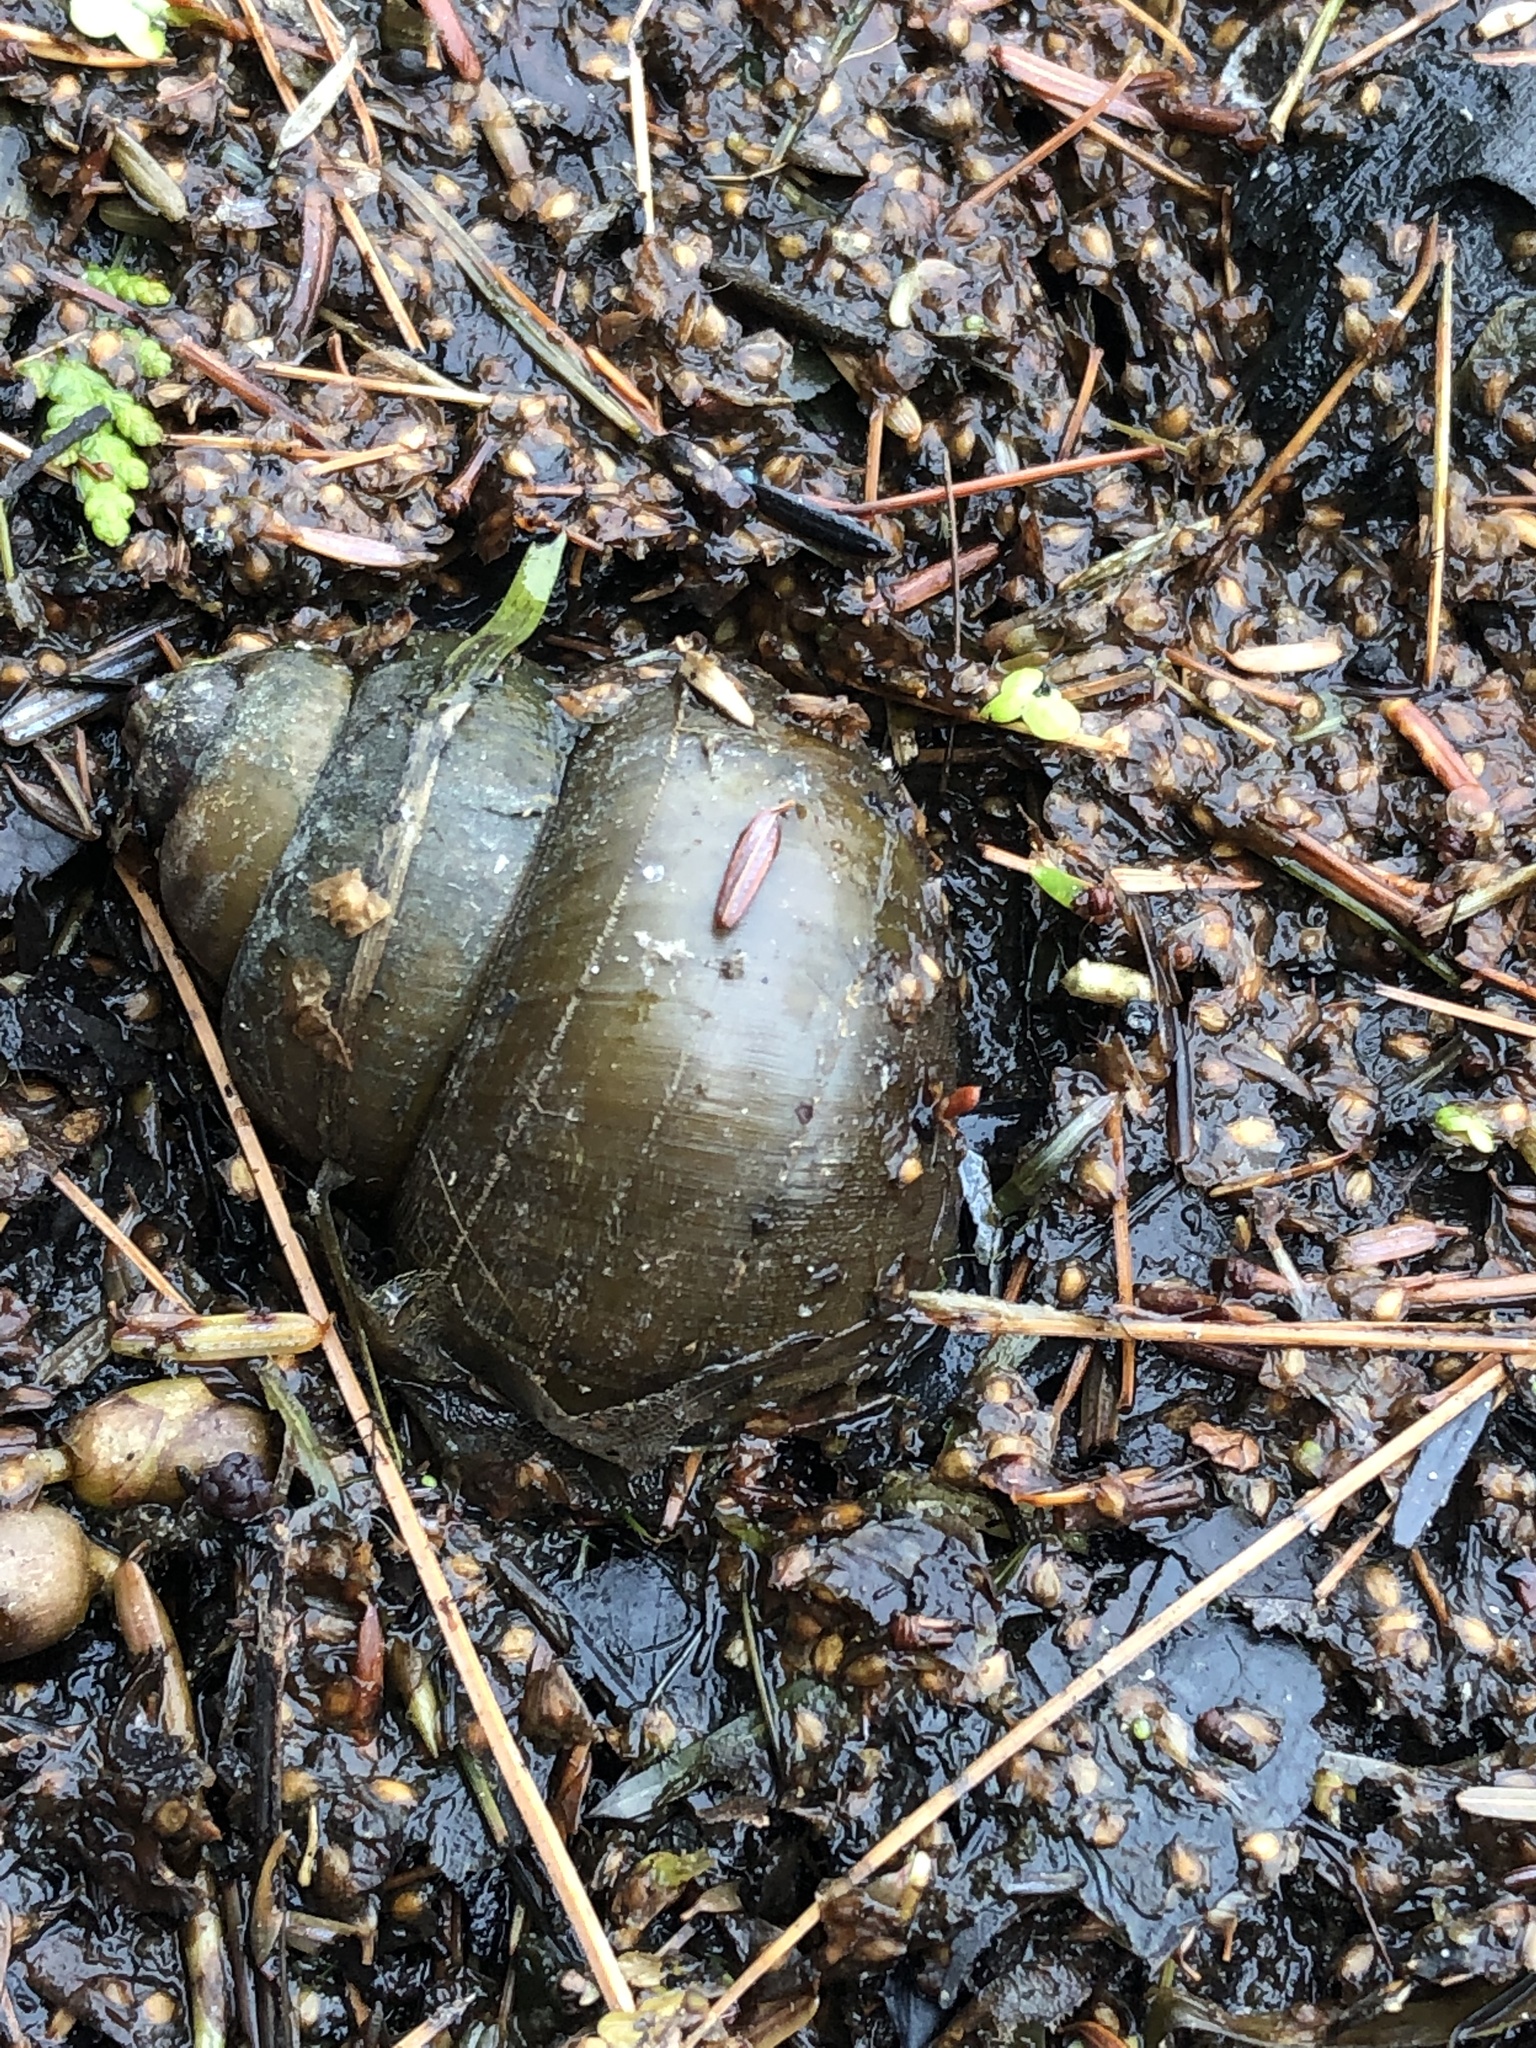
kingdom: Animalia
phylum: Mollusca
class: Gastropoda
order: Architaenioglossa
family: Viviparidae
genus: Cipangopaludina
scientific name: Cipangopaludina chinensis
